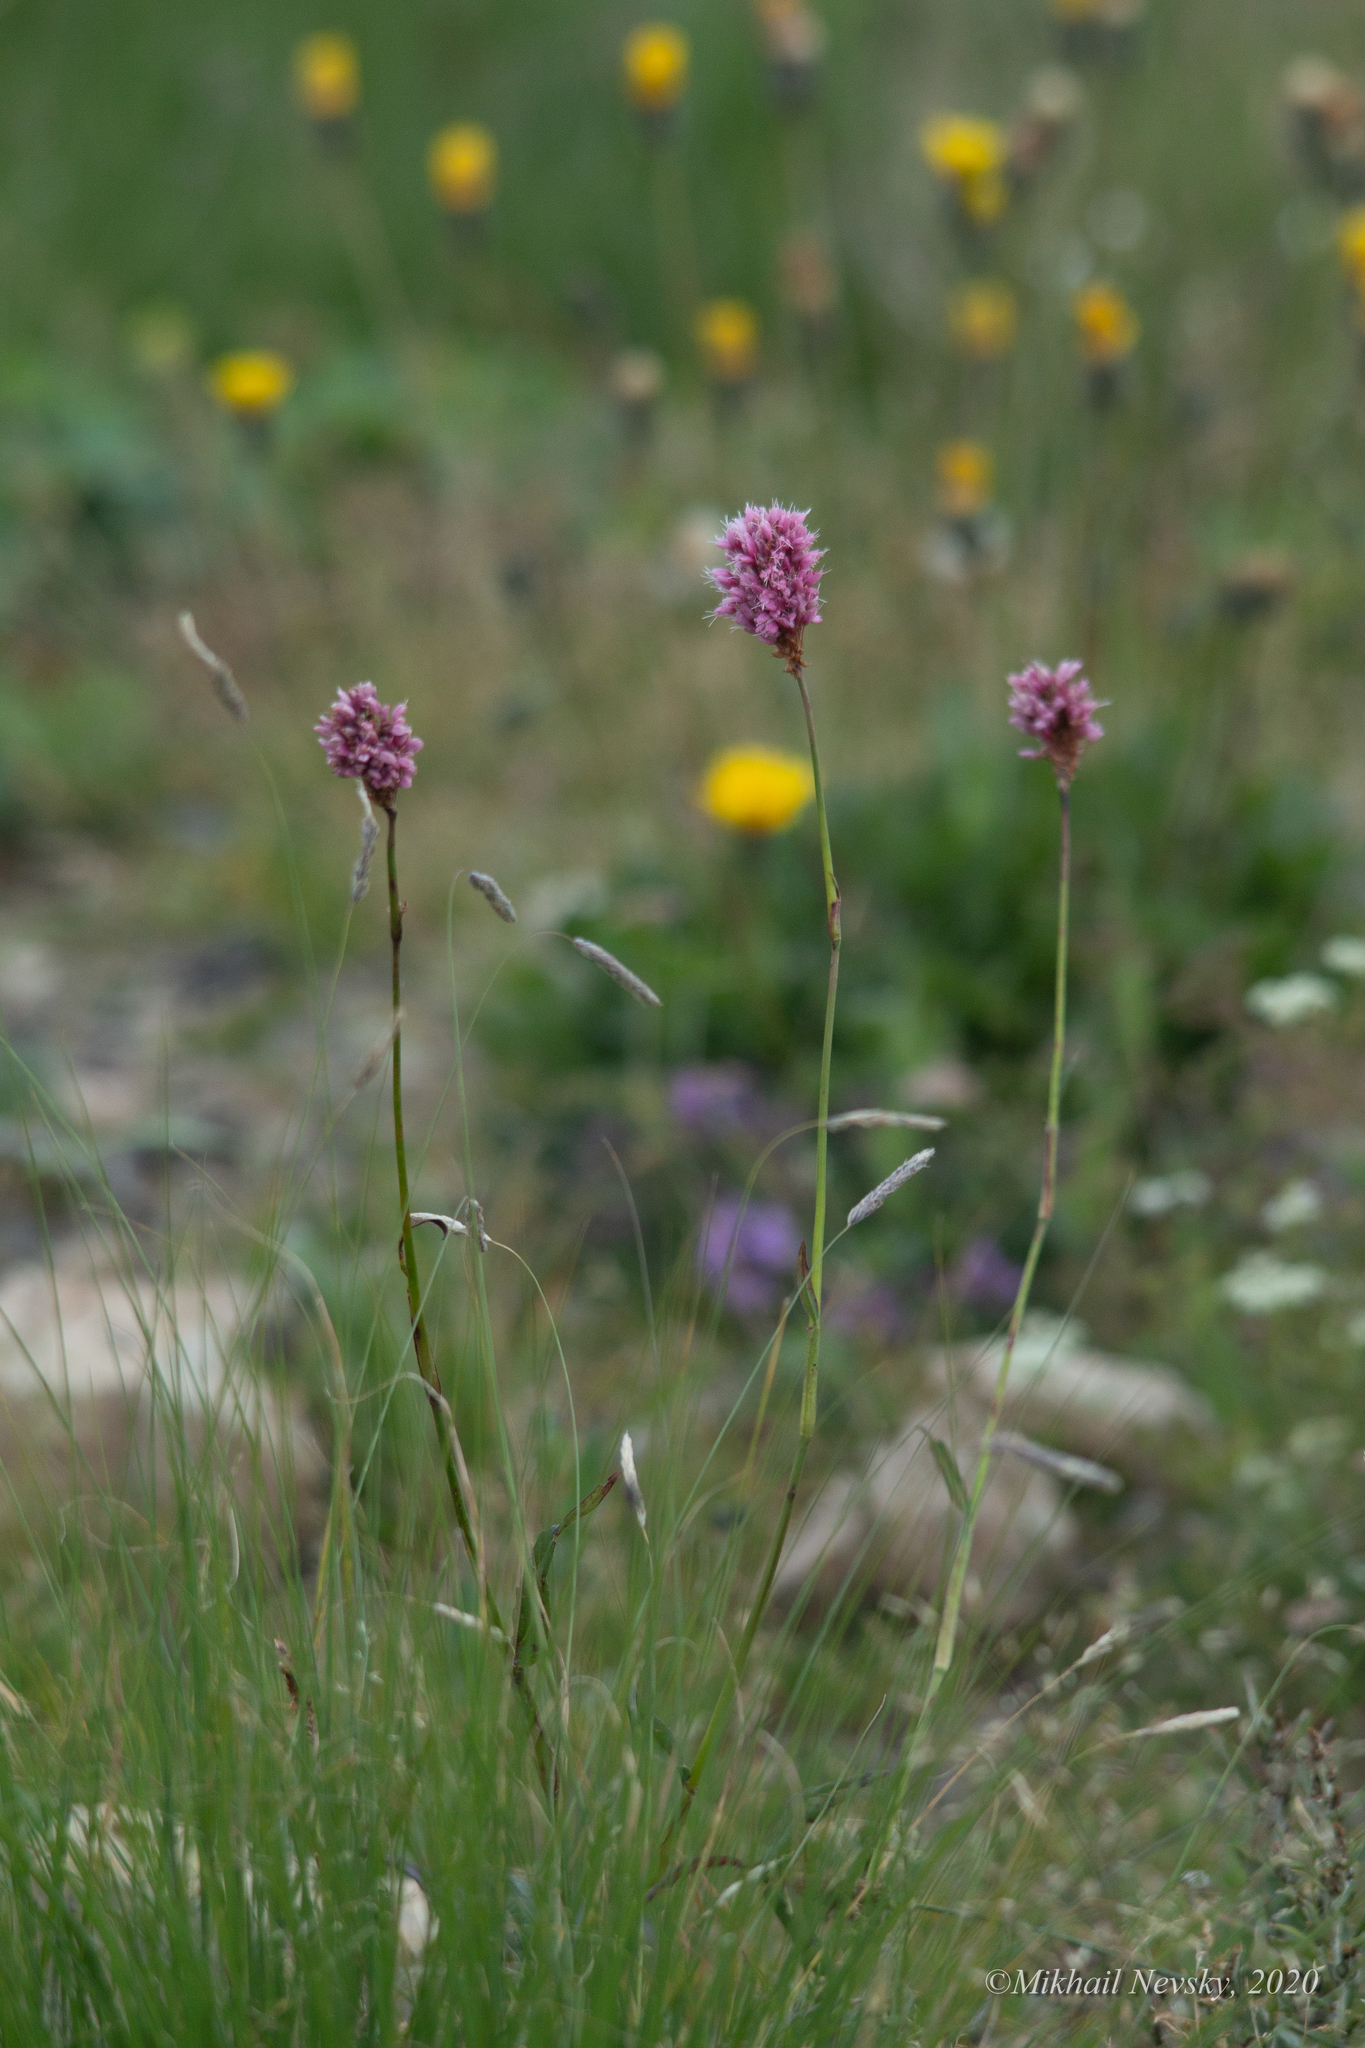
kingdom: Plantae
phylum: Tracheophyta
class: Magnoliopsida
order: Caryophyllales
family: Polygonaceae
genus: Bistorta
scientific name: Bistorta carnea
